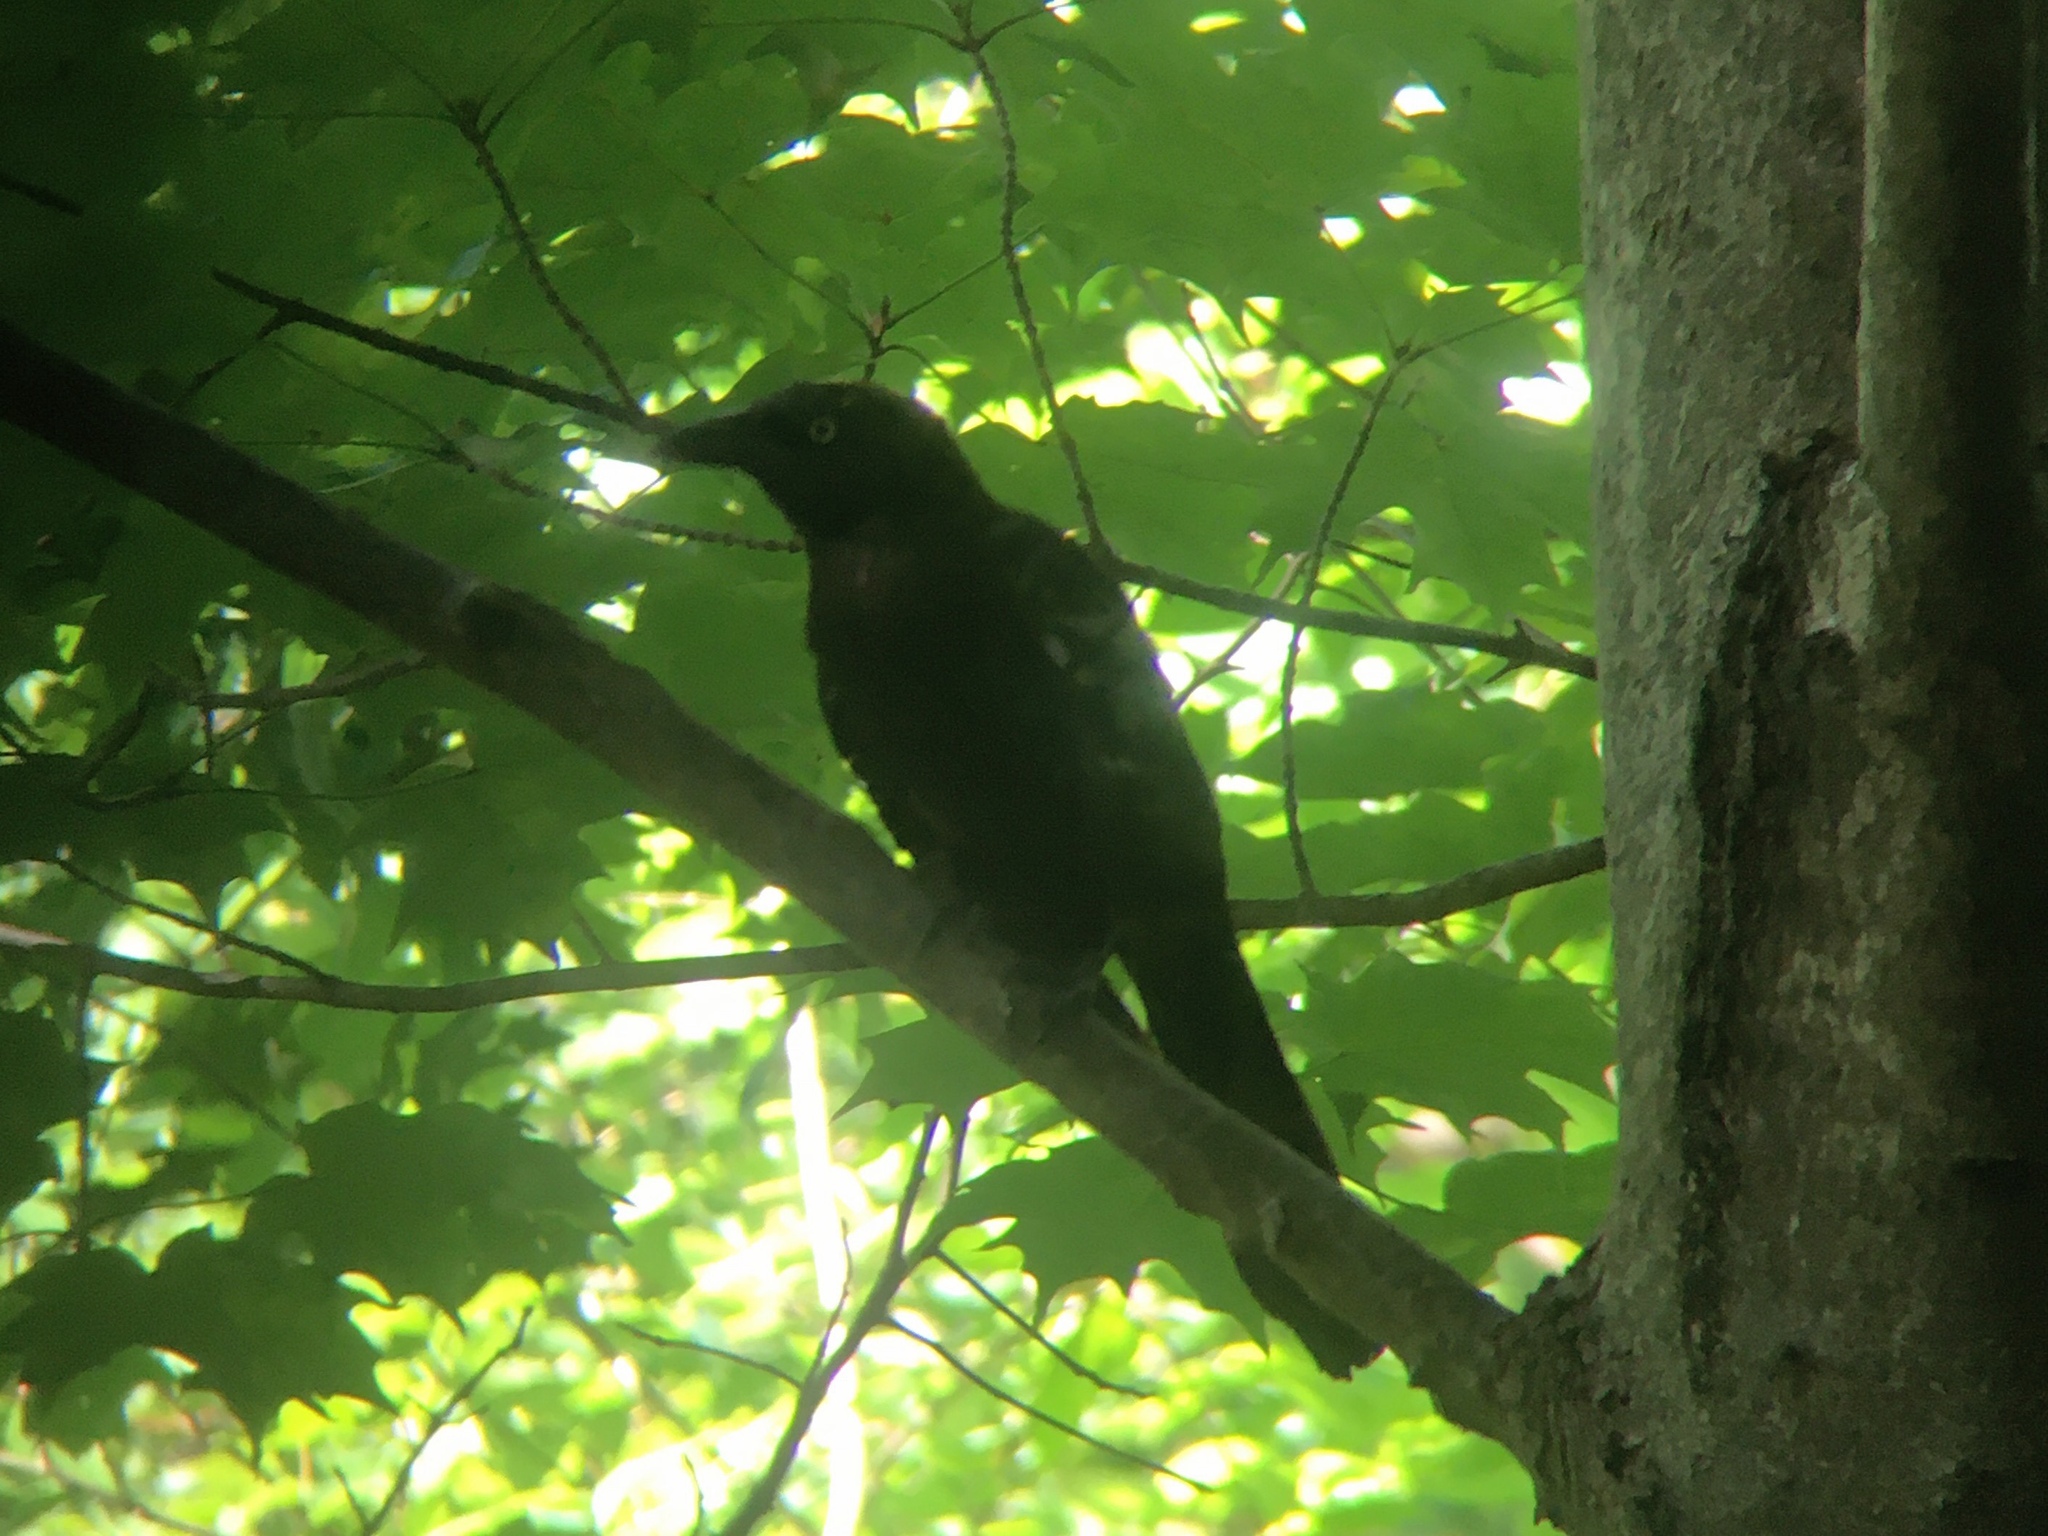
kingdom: Animalia
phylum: Chordata
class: Aves
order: Passeriformes
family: Icteridae
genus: Quiscalus
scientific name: Quiscalus quiscula
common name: Common grackle
